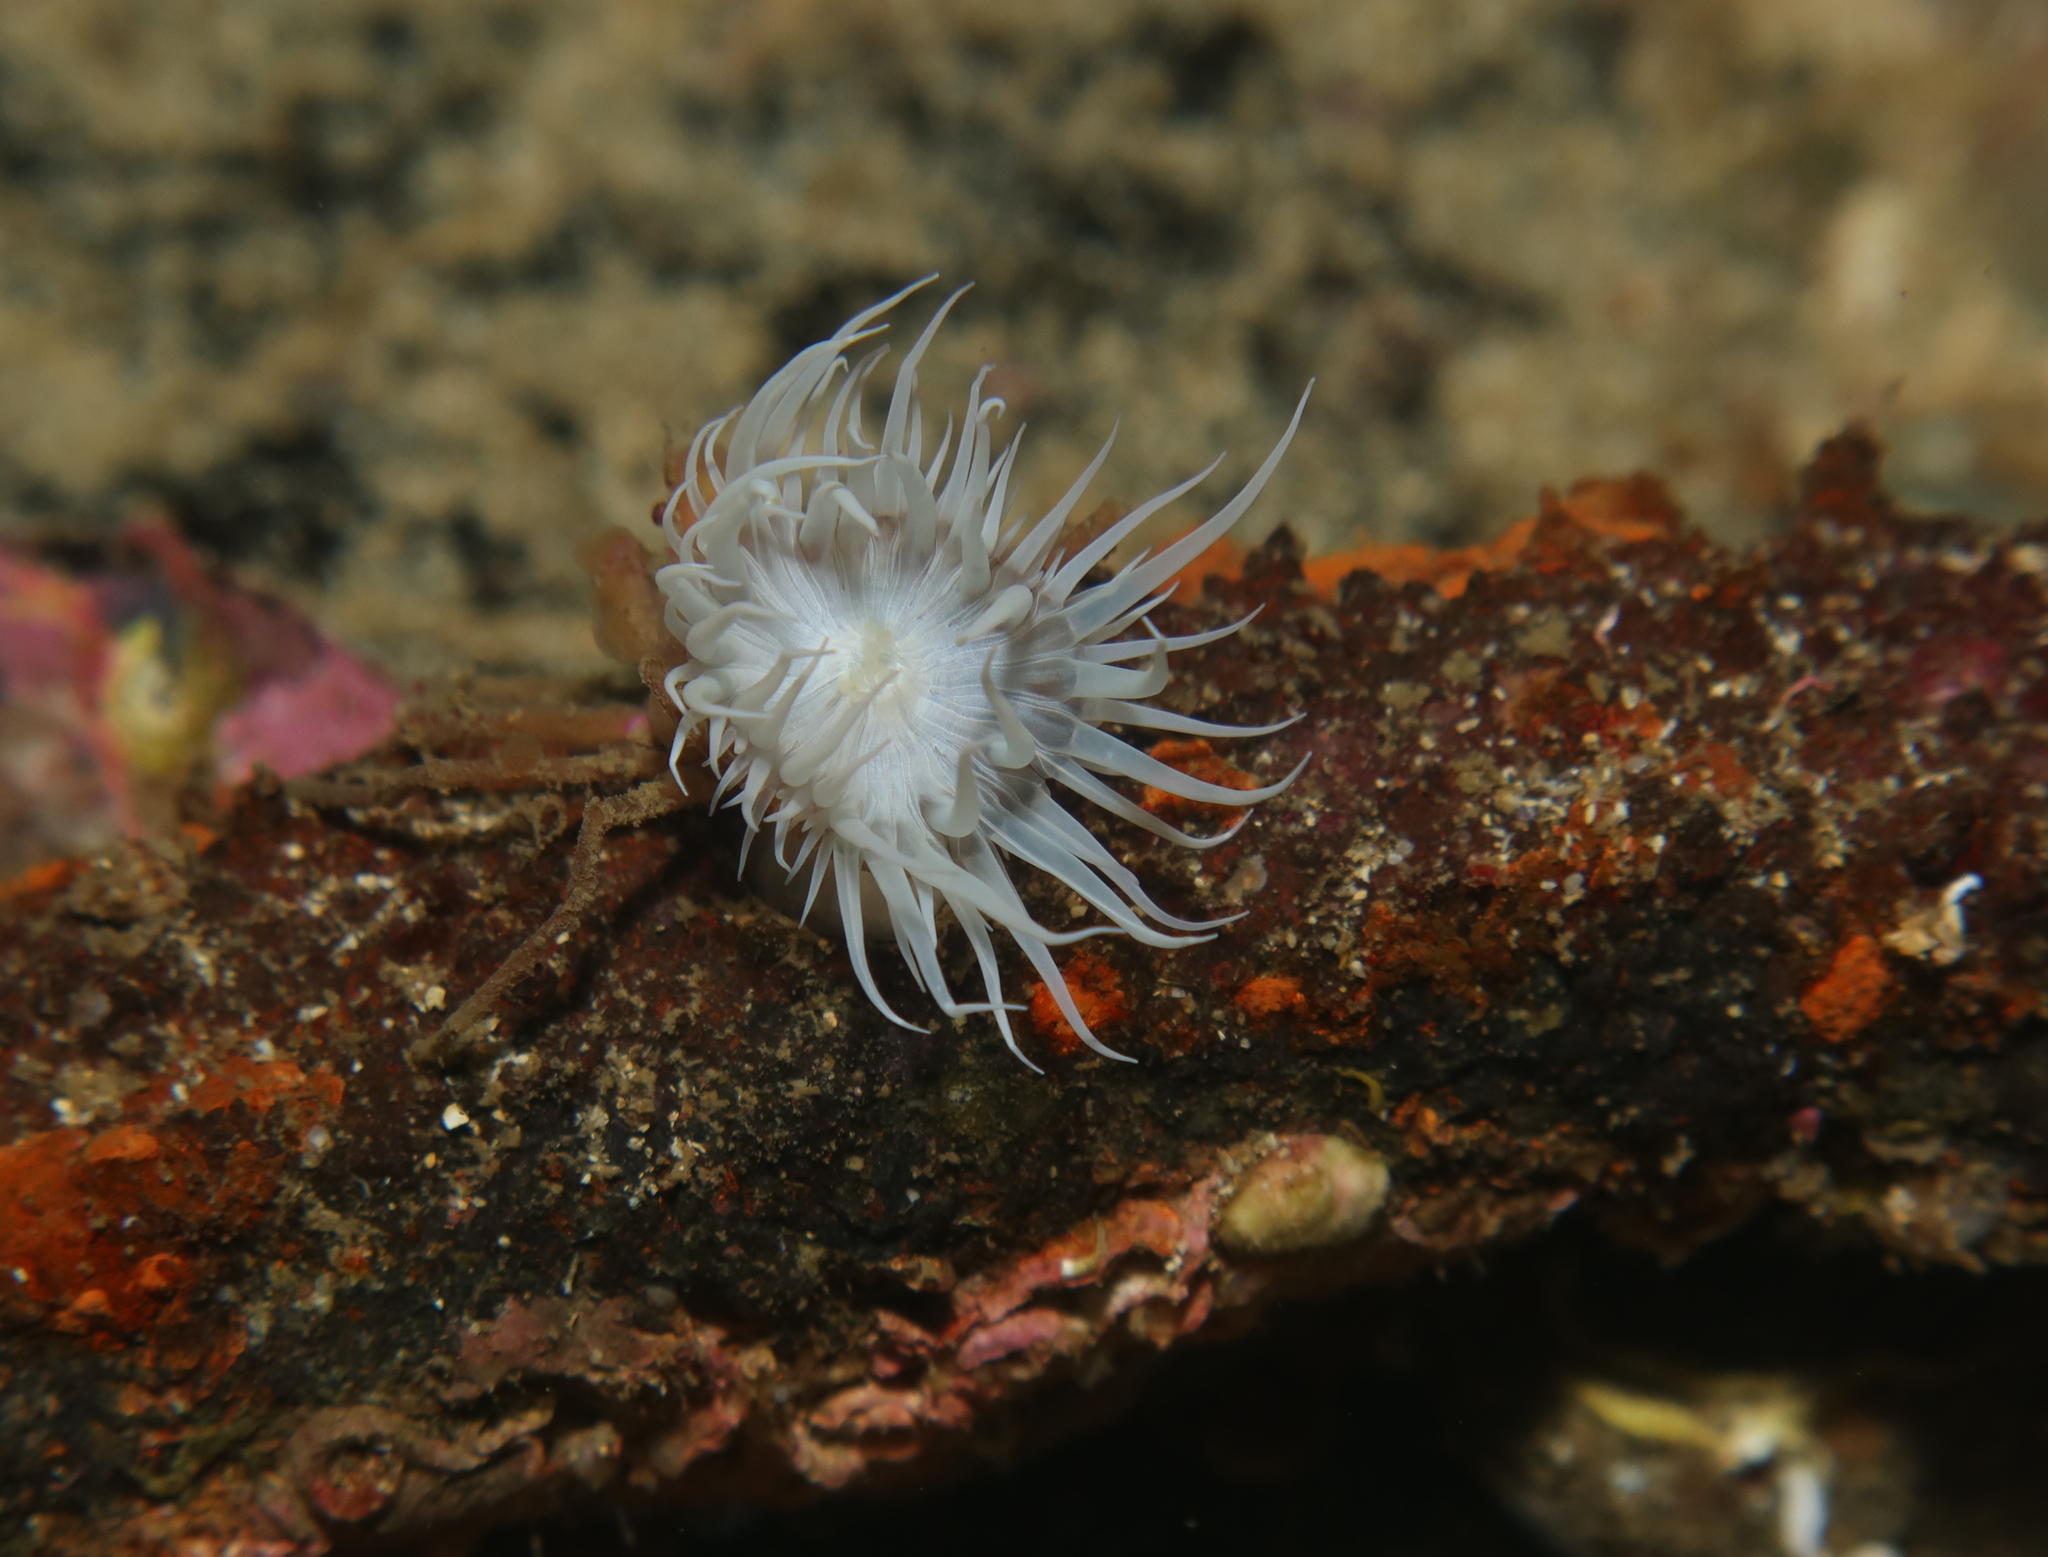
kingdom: Animalia
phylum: Cnidaria
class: Anthozoa
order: Actiniaria
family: Sagartiidae
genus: Actinothoe
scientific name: Actinothoe sphyrodeta
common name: Sandalled anemone
